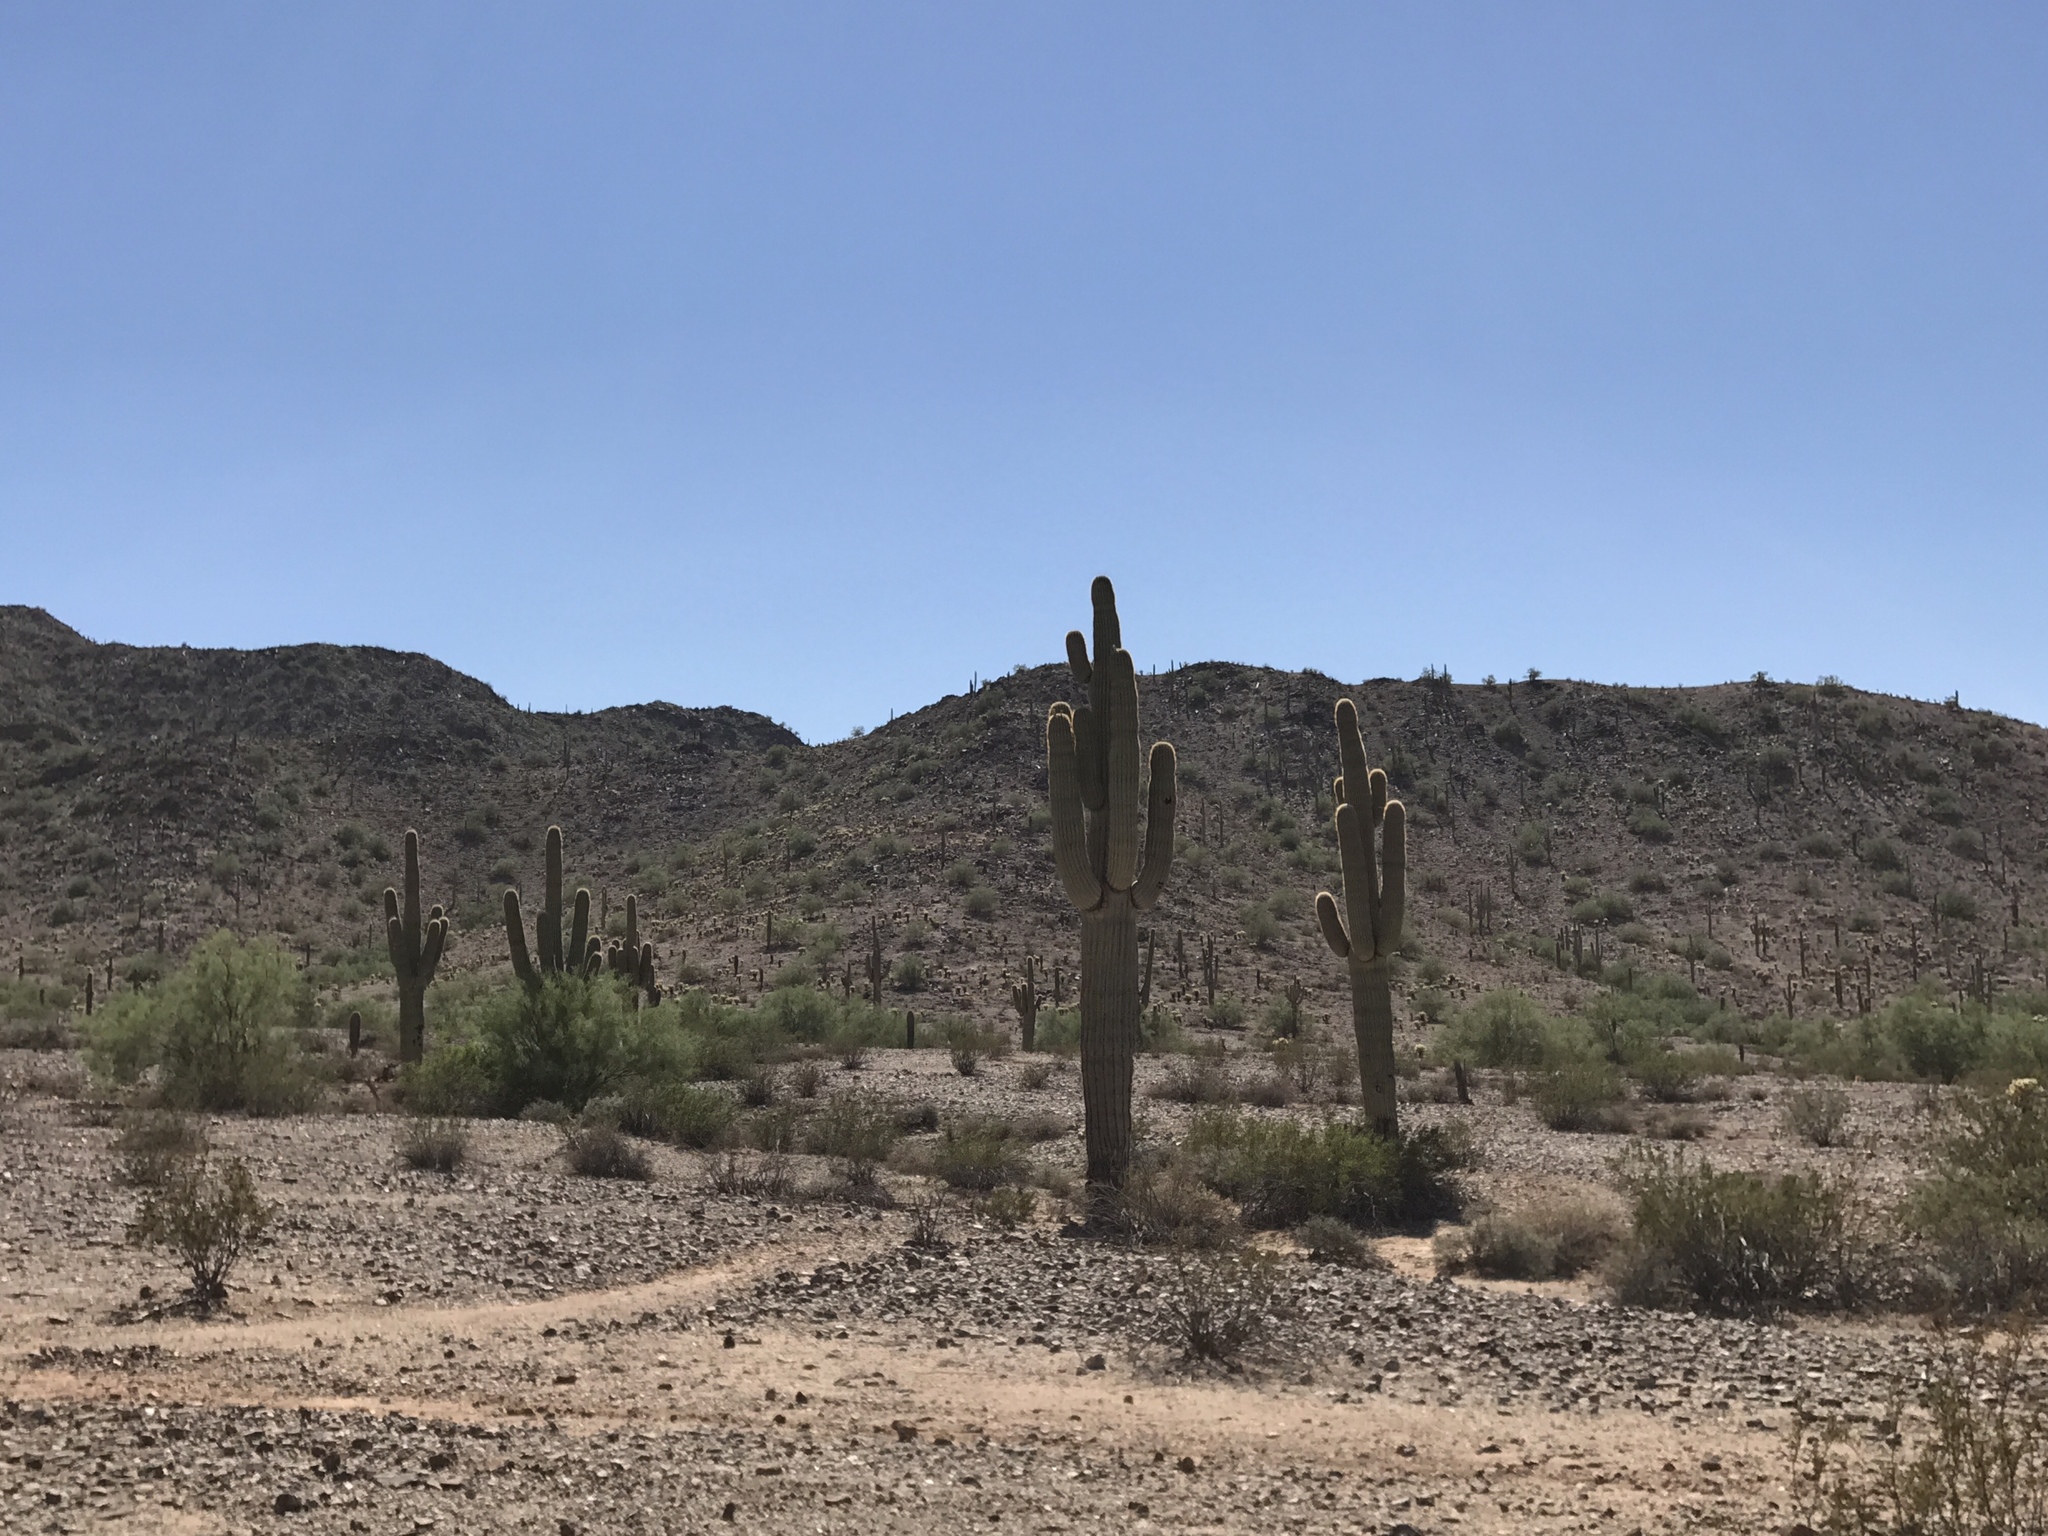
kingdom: Plantae
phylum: Tracheophyta
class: Magnoliopsida
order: Caryophyllales
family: Cactaceae
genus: Carnegiea
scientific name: Carnegiea gigantea
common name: Saguaro
